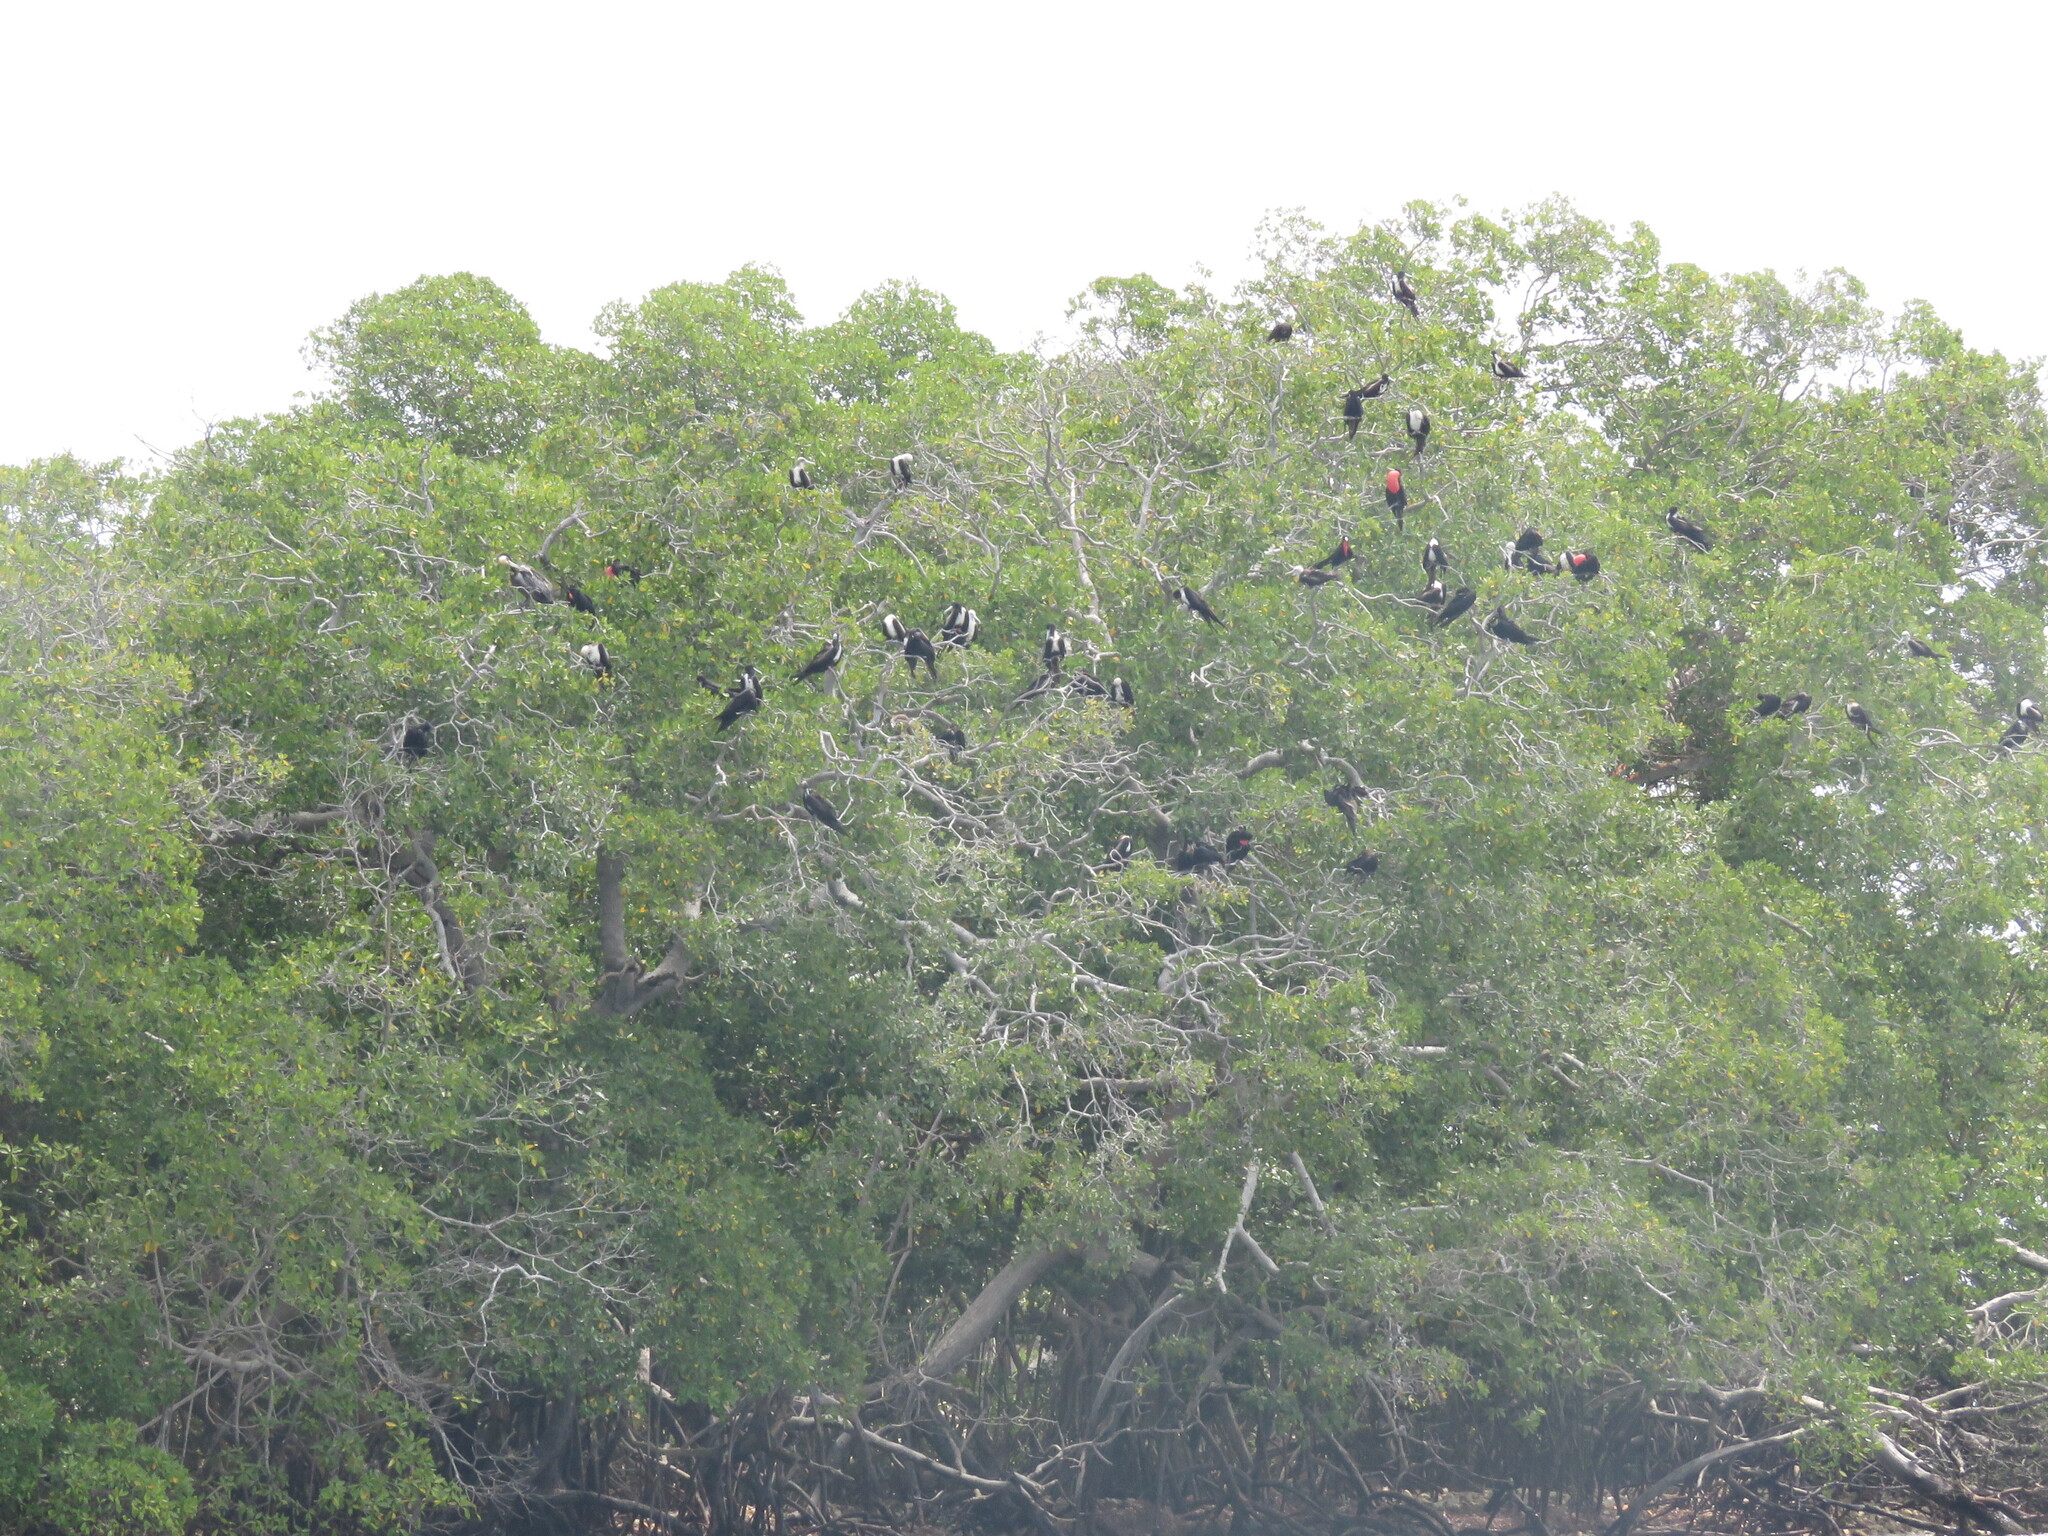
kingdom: Animalia
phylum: Chordata
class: Aves
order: Suliformes
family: Fregatidae
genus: Fregata
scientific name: Fregata magnificens
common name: Magnificent frigatebird
